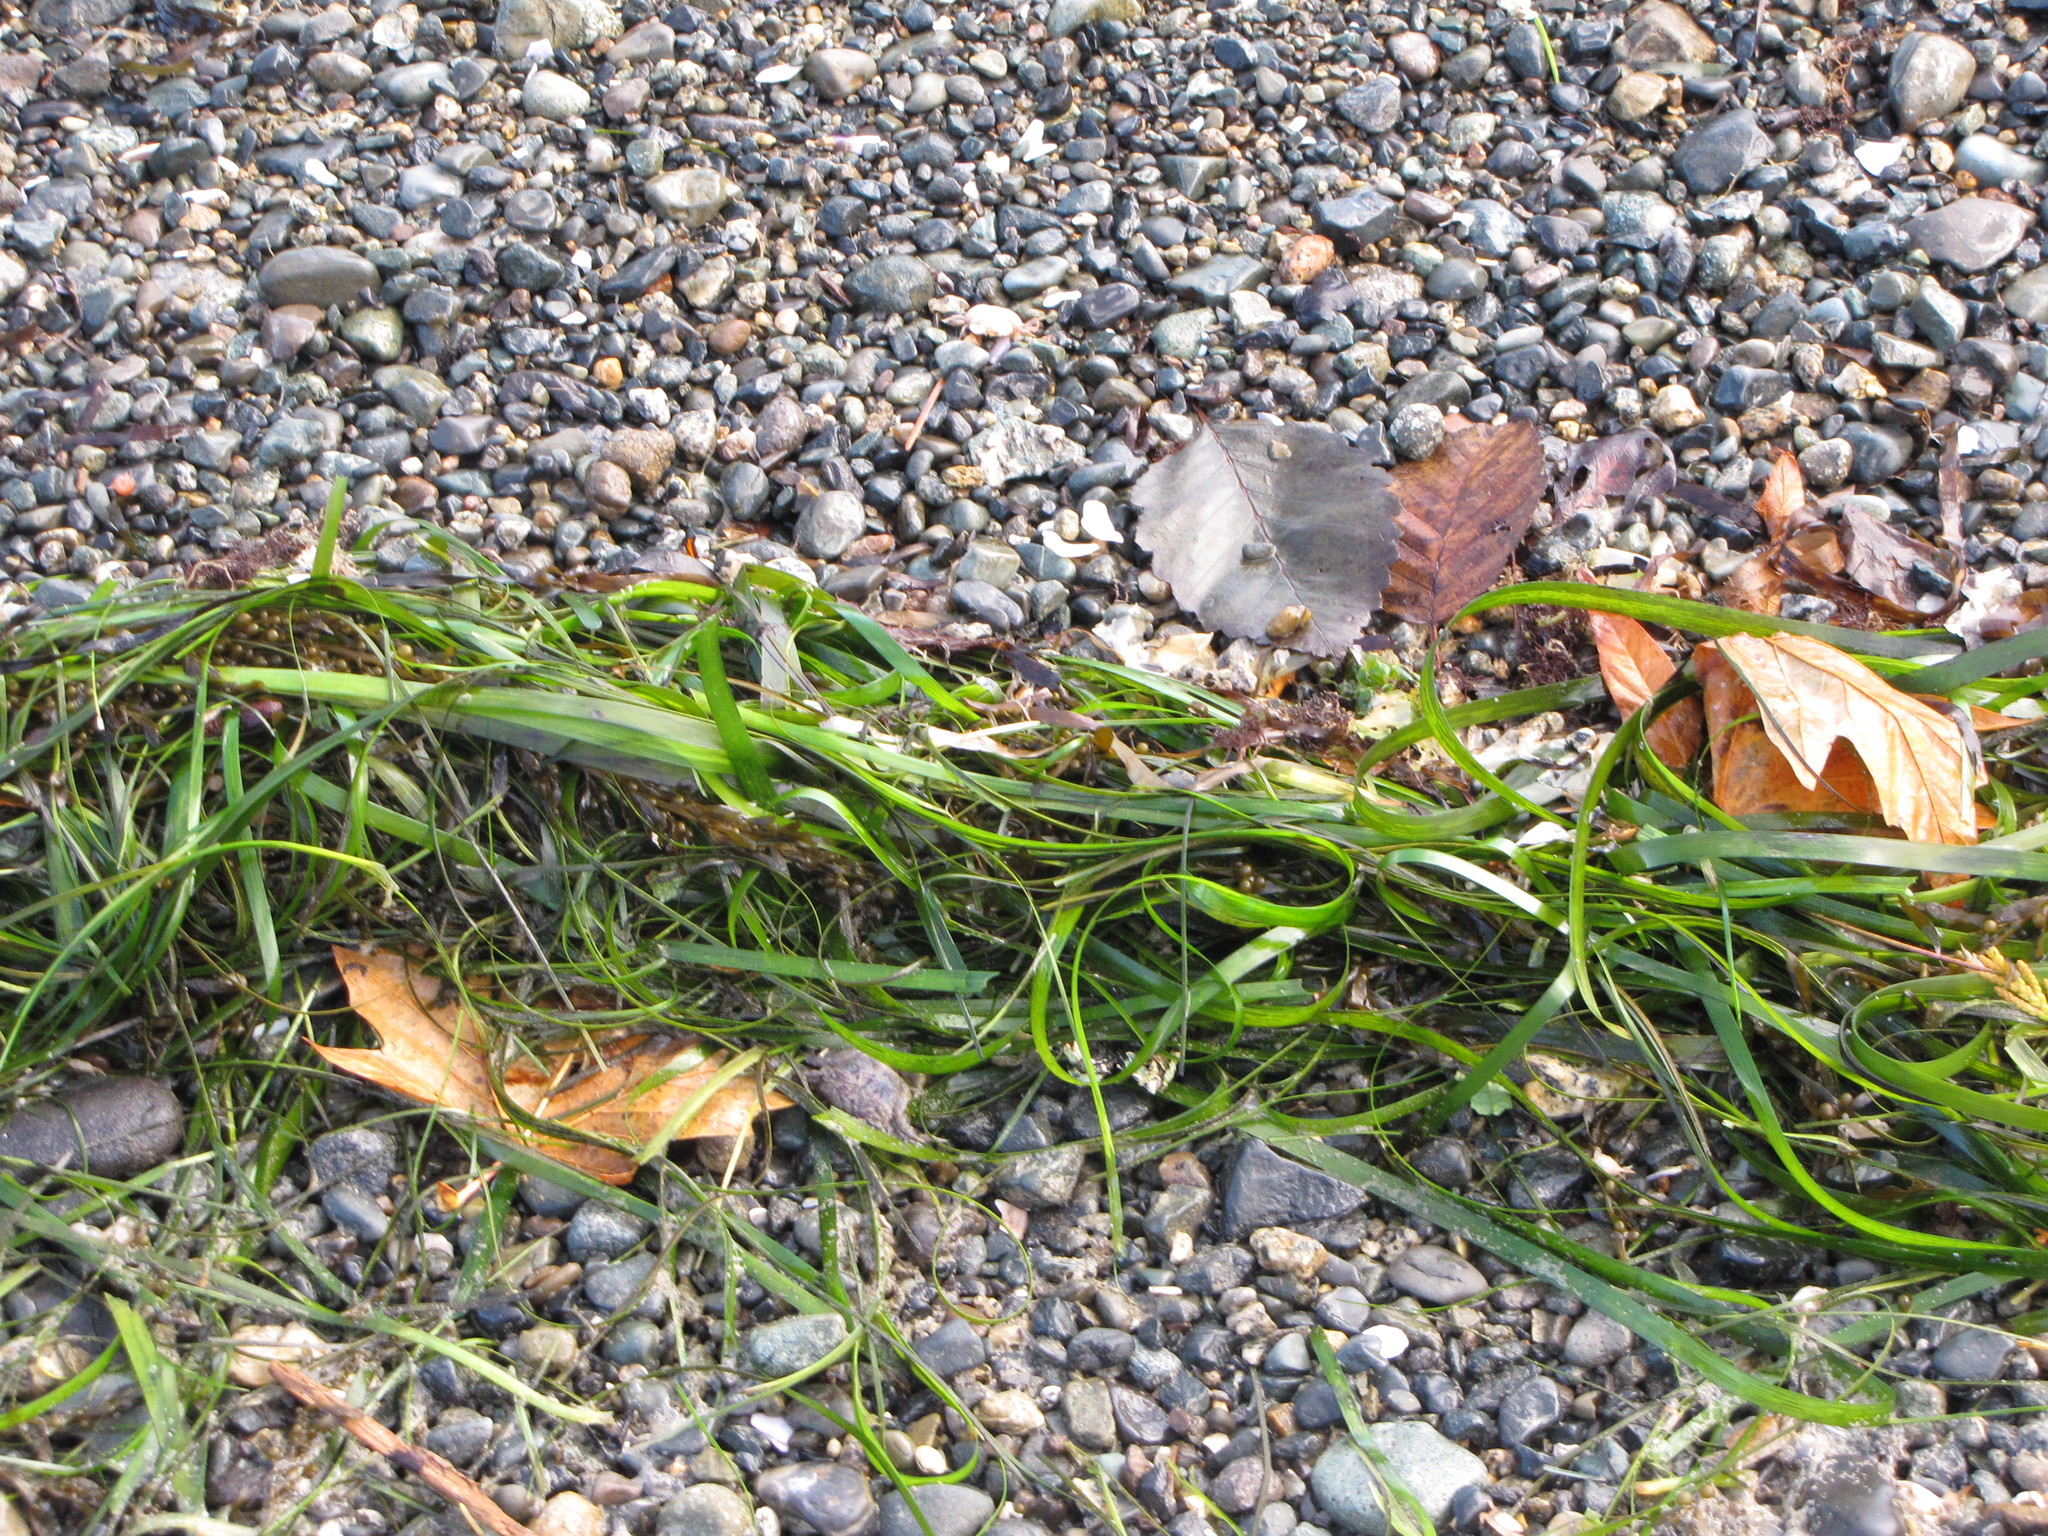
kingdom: Plantae
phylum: Tracheophyta
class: Liliopsida
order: Alismatales
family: Zosteraceae
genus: Zostera
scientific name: Zostera marina
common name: Eelgrass
